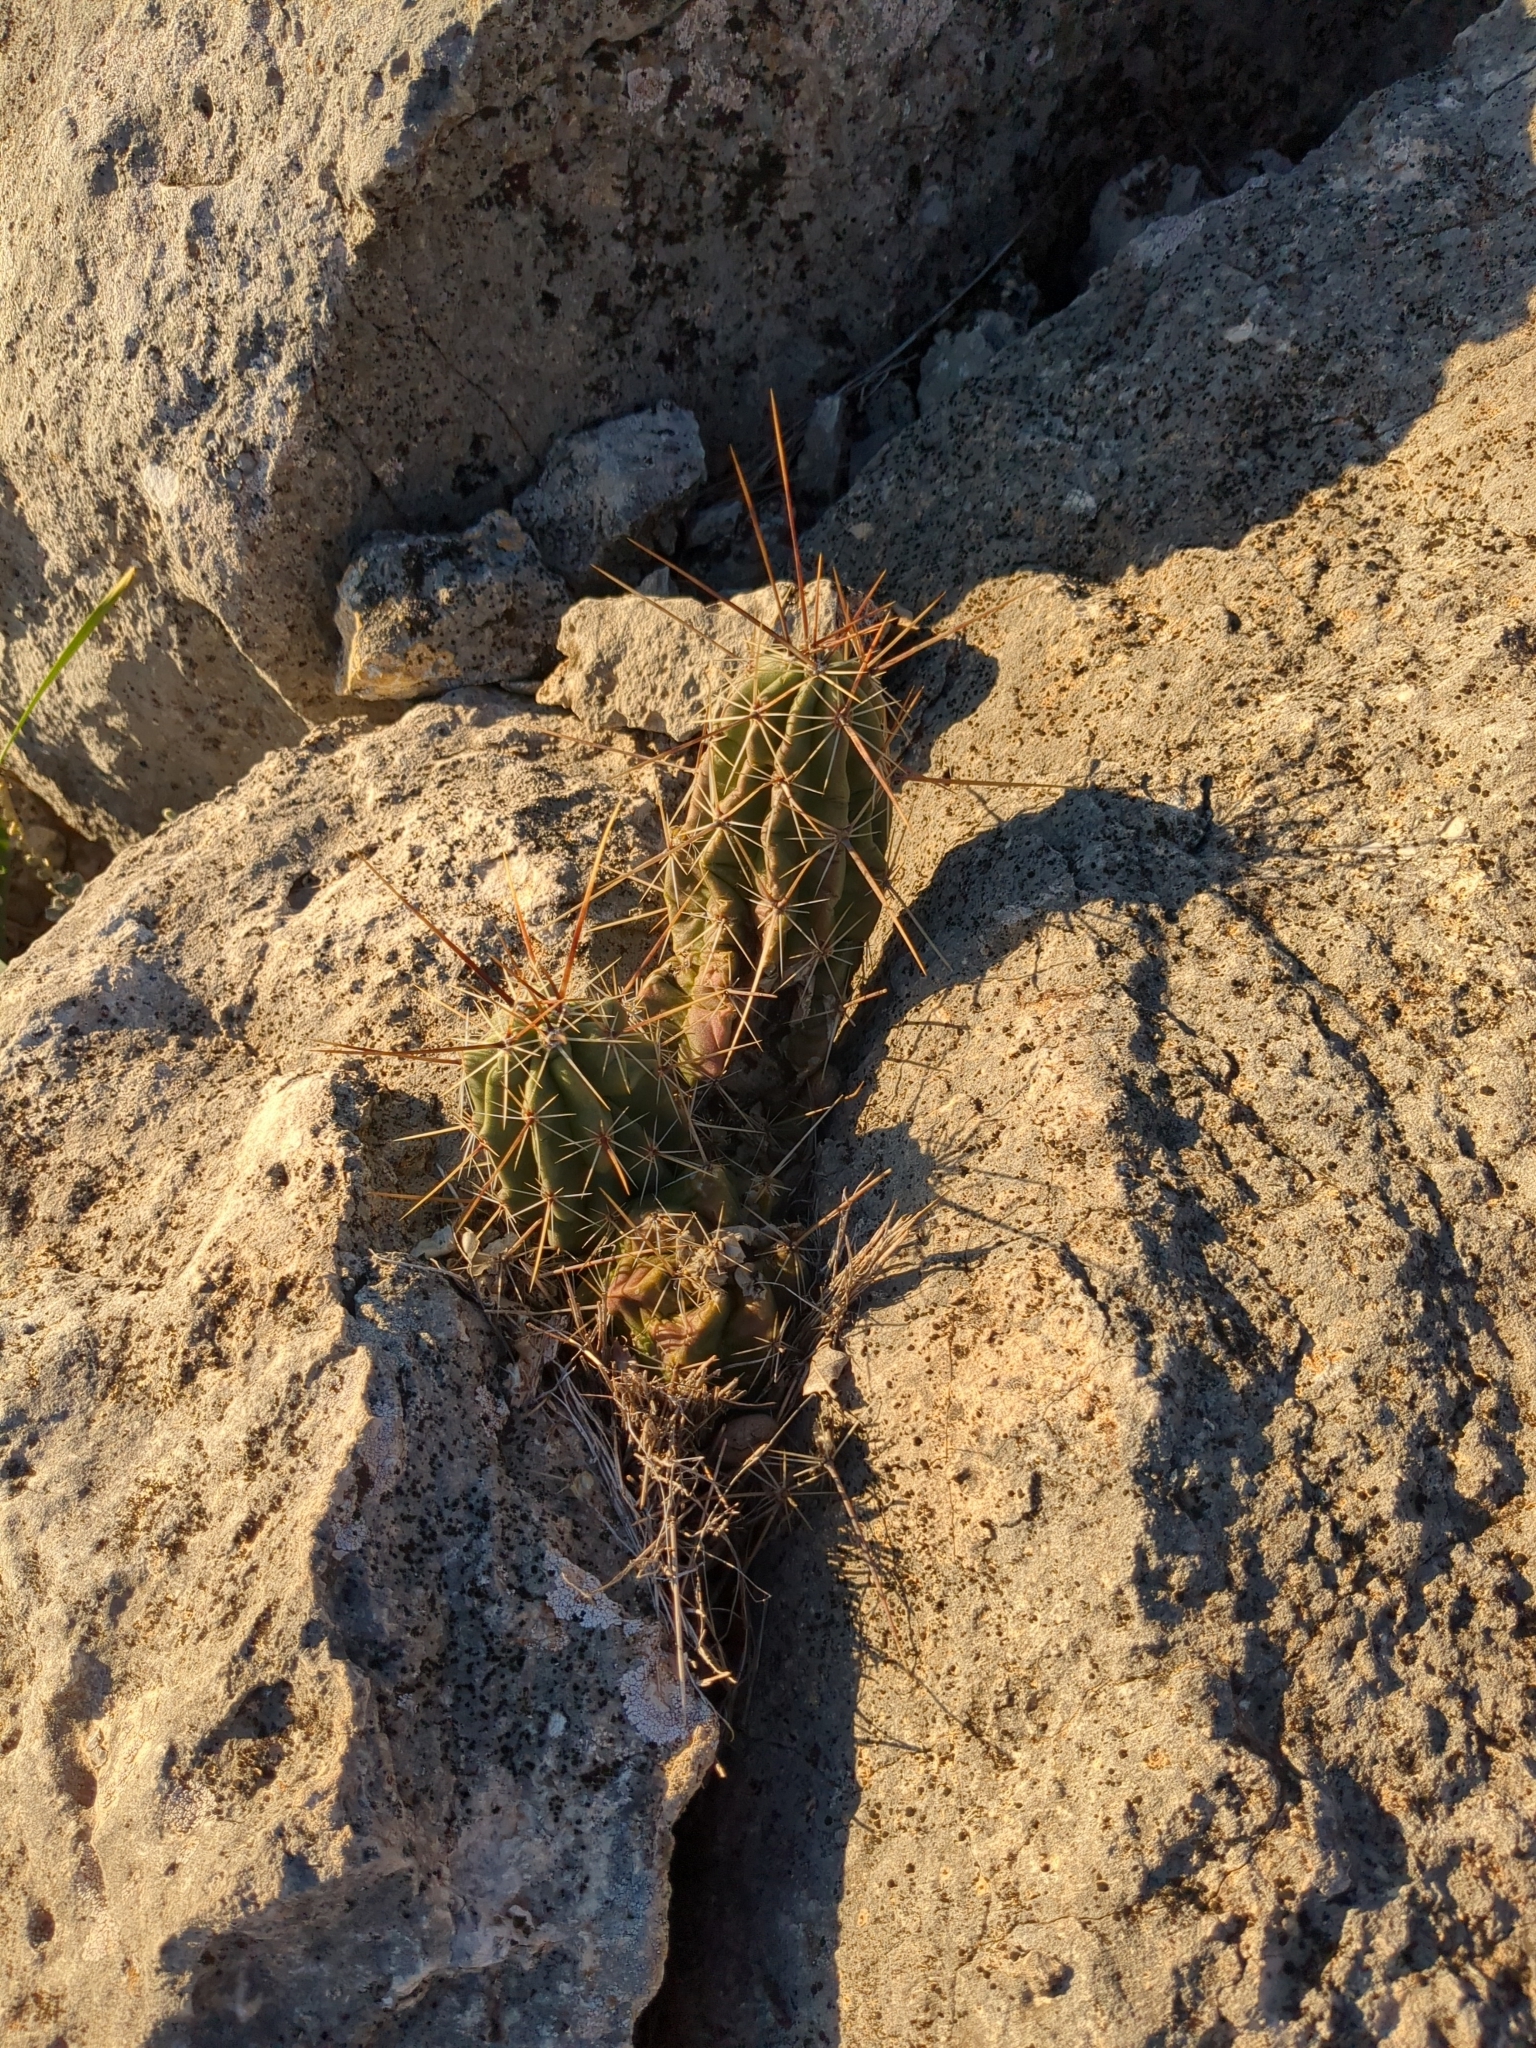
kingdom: Plantae
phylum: Tracheophyta
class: Magnoliopsida
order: Caryophyllales
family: Cactaceae
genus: Echinocereus
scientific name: Echinocereus enneacanthus
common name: Pitaya
